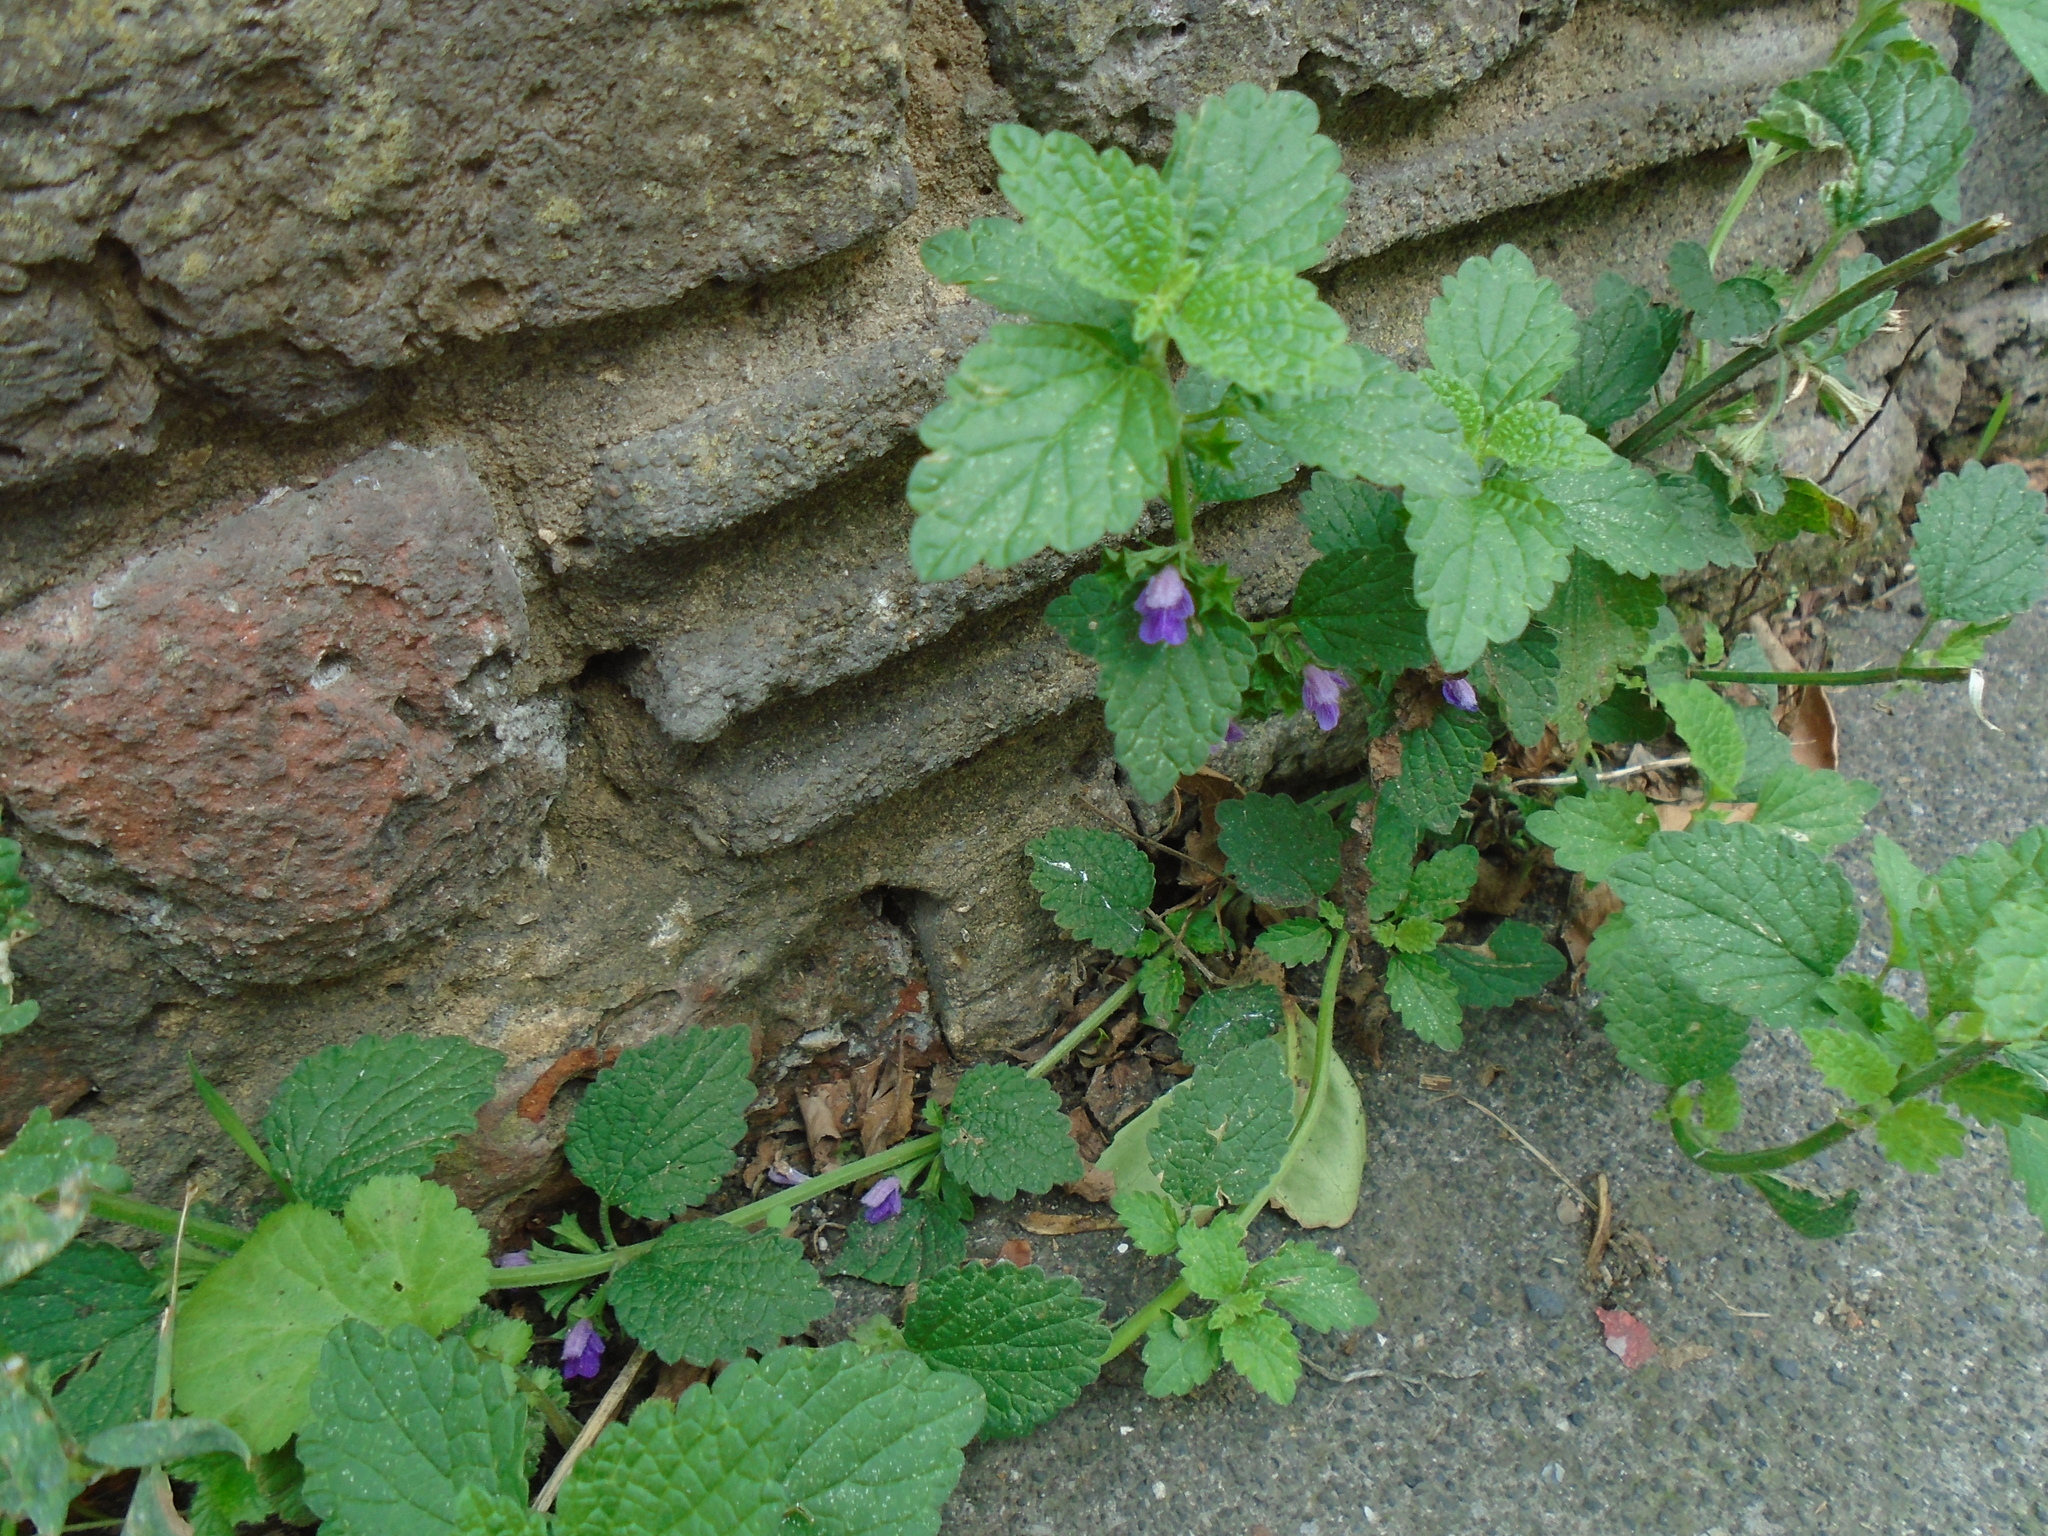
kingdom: Plantae
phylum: Tracheophyta
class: Magnoliopsida
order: Lamiales
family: Lamiaceae
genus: Ballota
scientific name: Ballota nigra
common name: Black horehound
